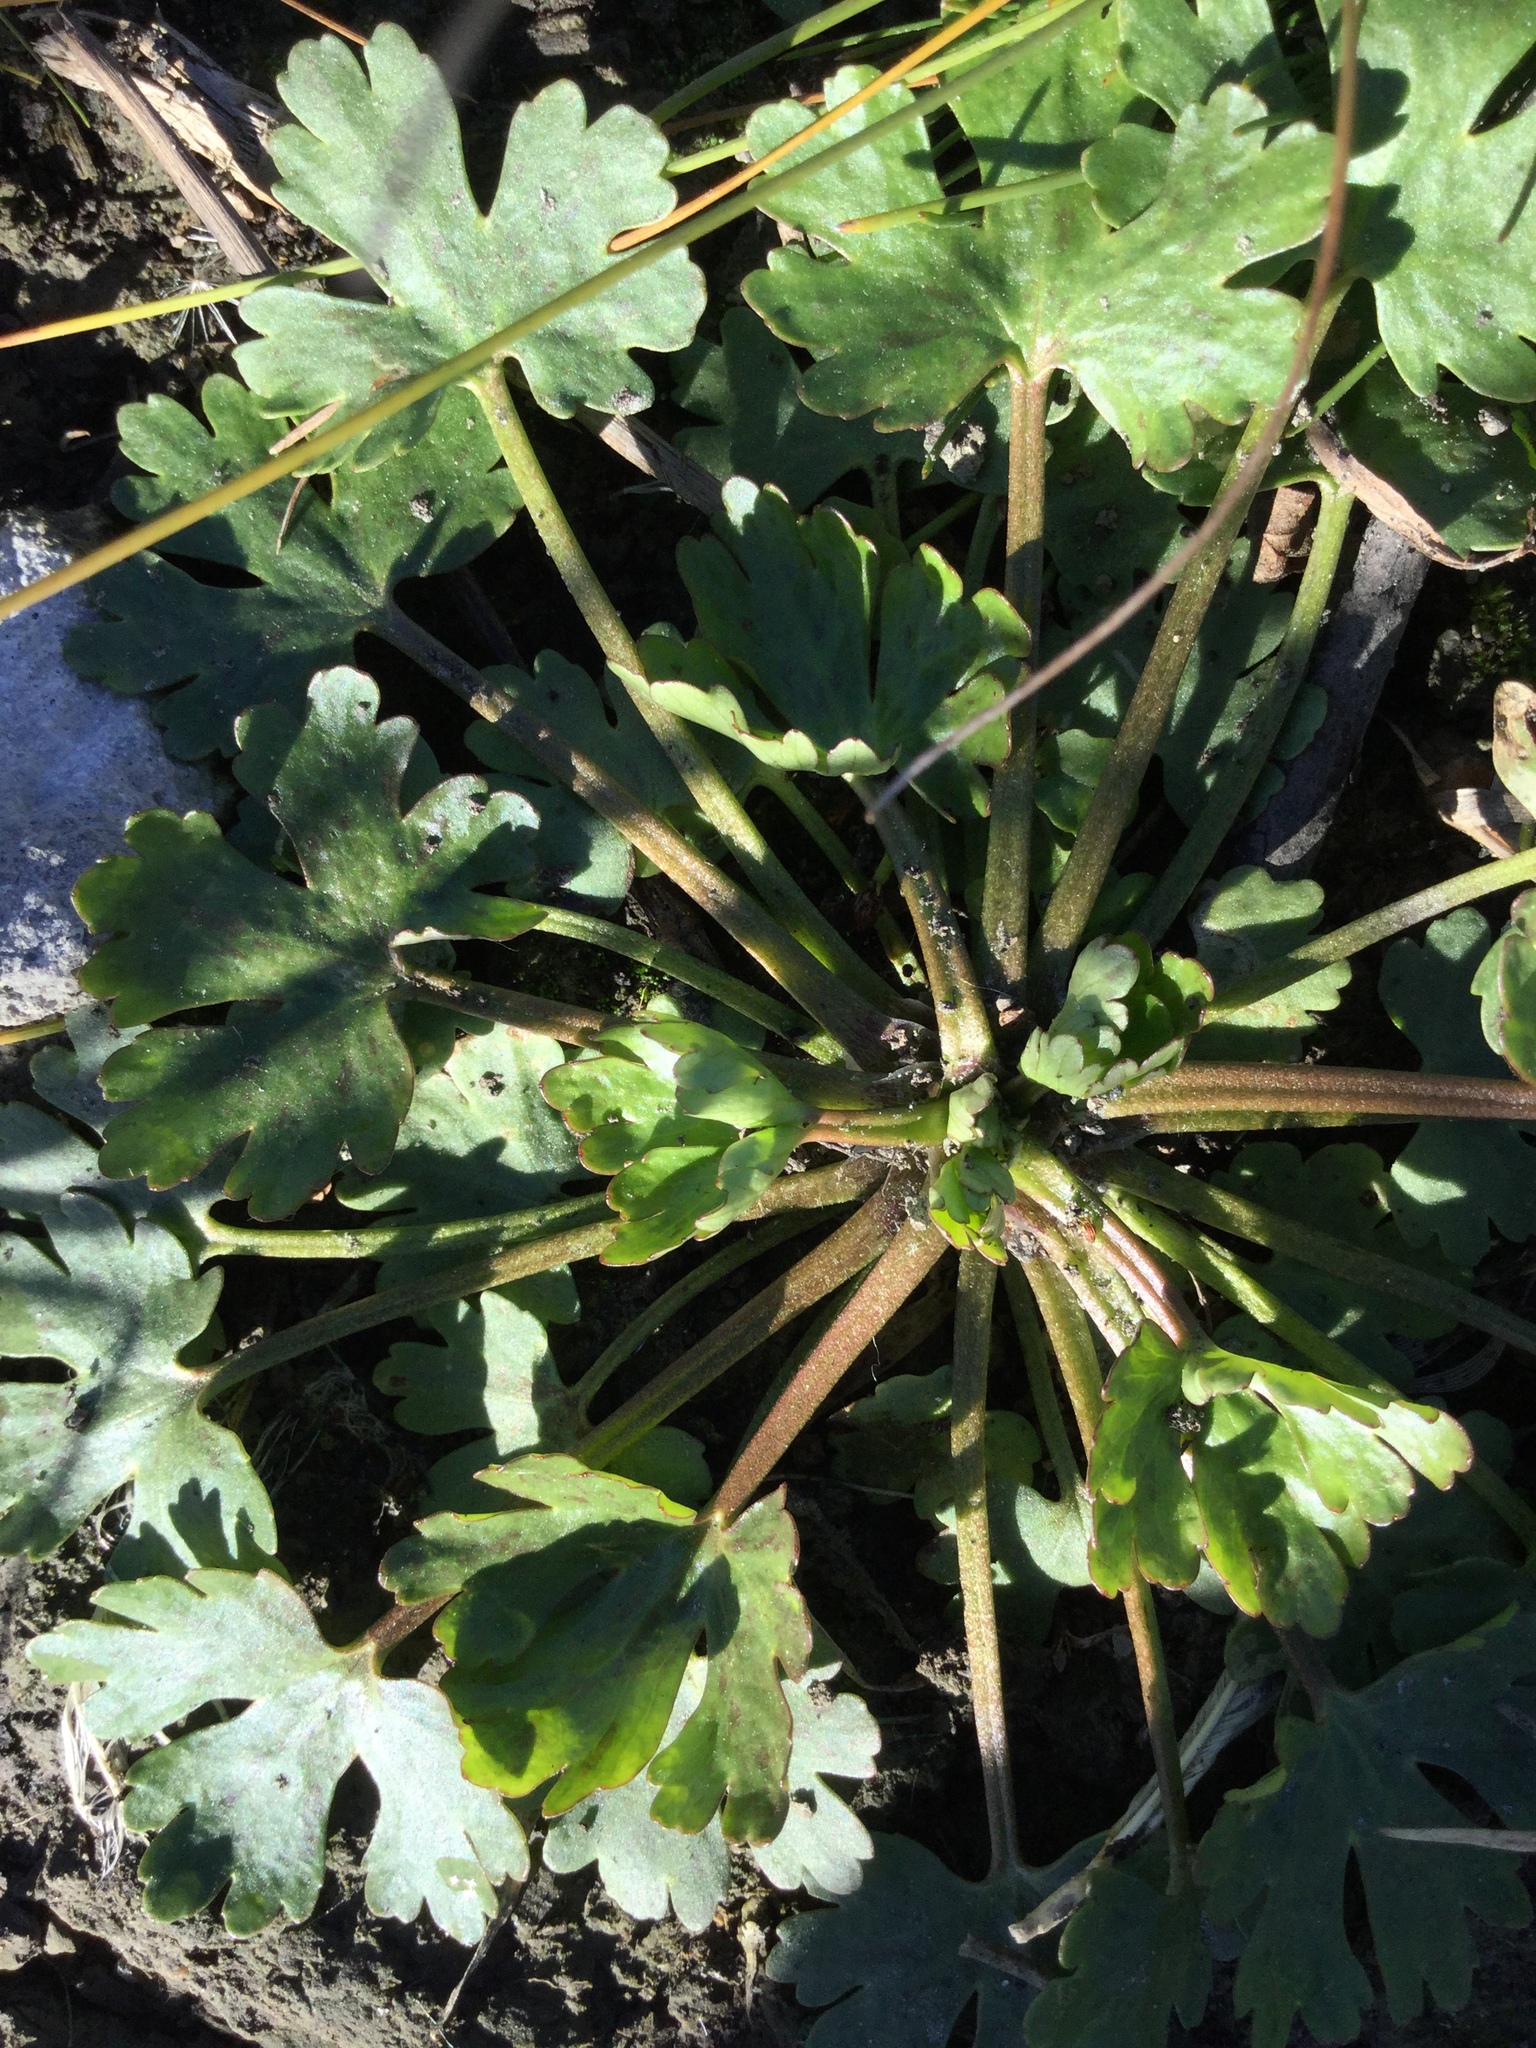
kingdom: Plantae
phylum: Tracheophyta
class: Magnoliopsida
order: Ranunculales
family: Ranunculaceae
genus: Ranunculus
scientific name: Ranunculus sceleratus
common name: Celery-leaved buttercup
